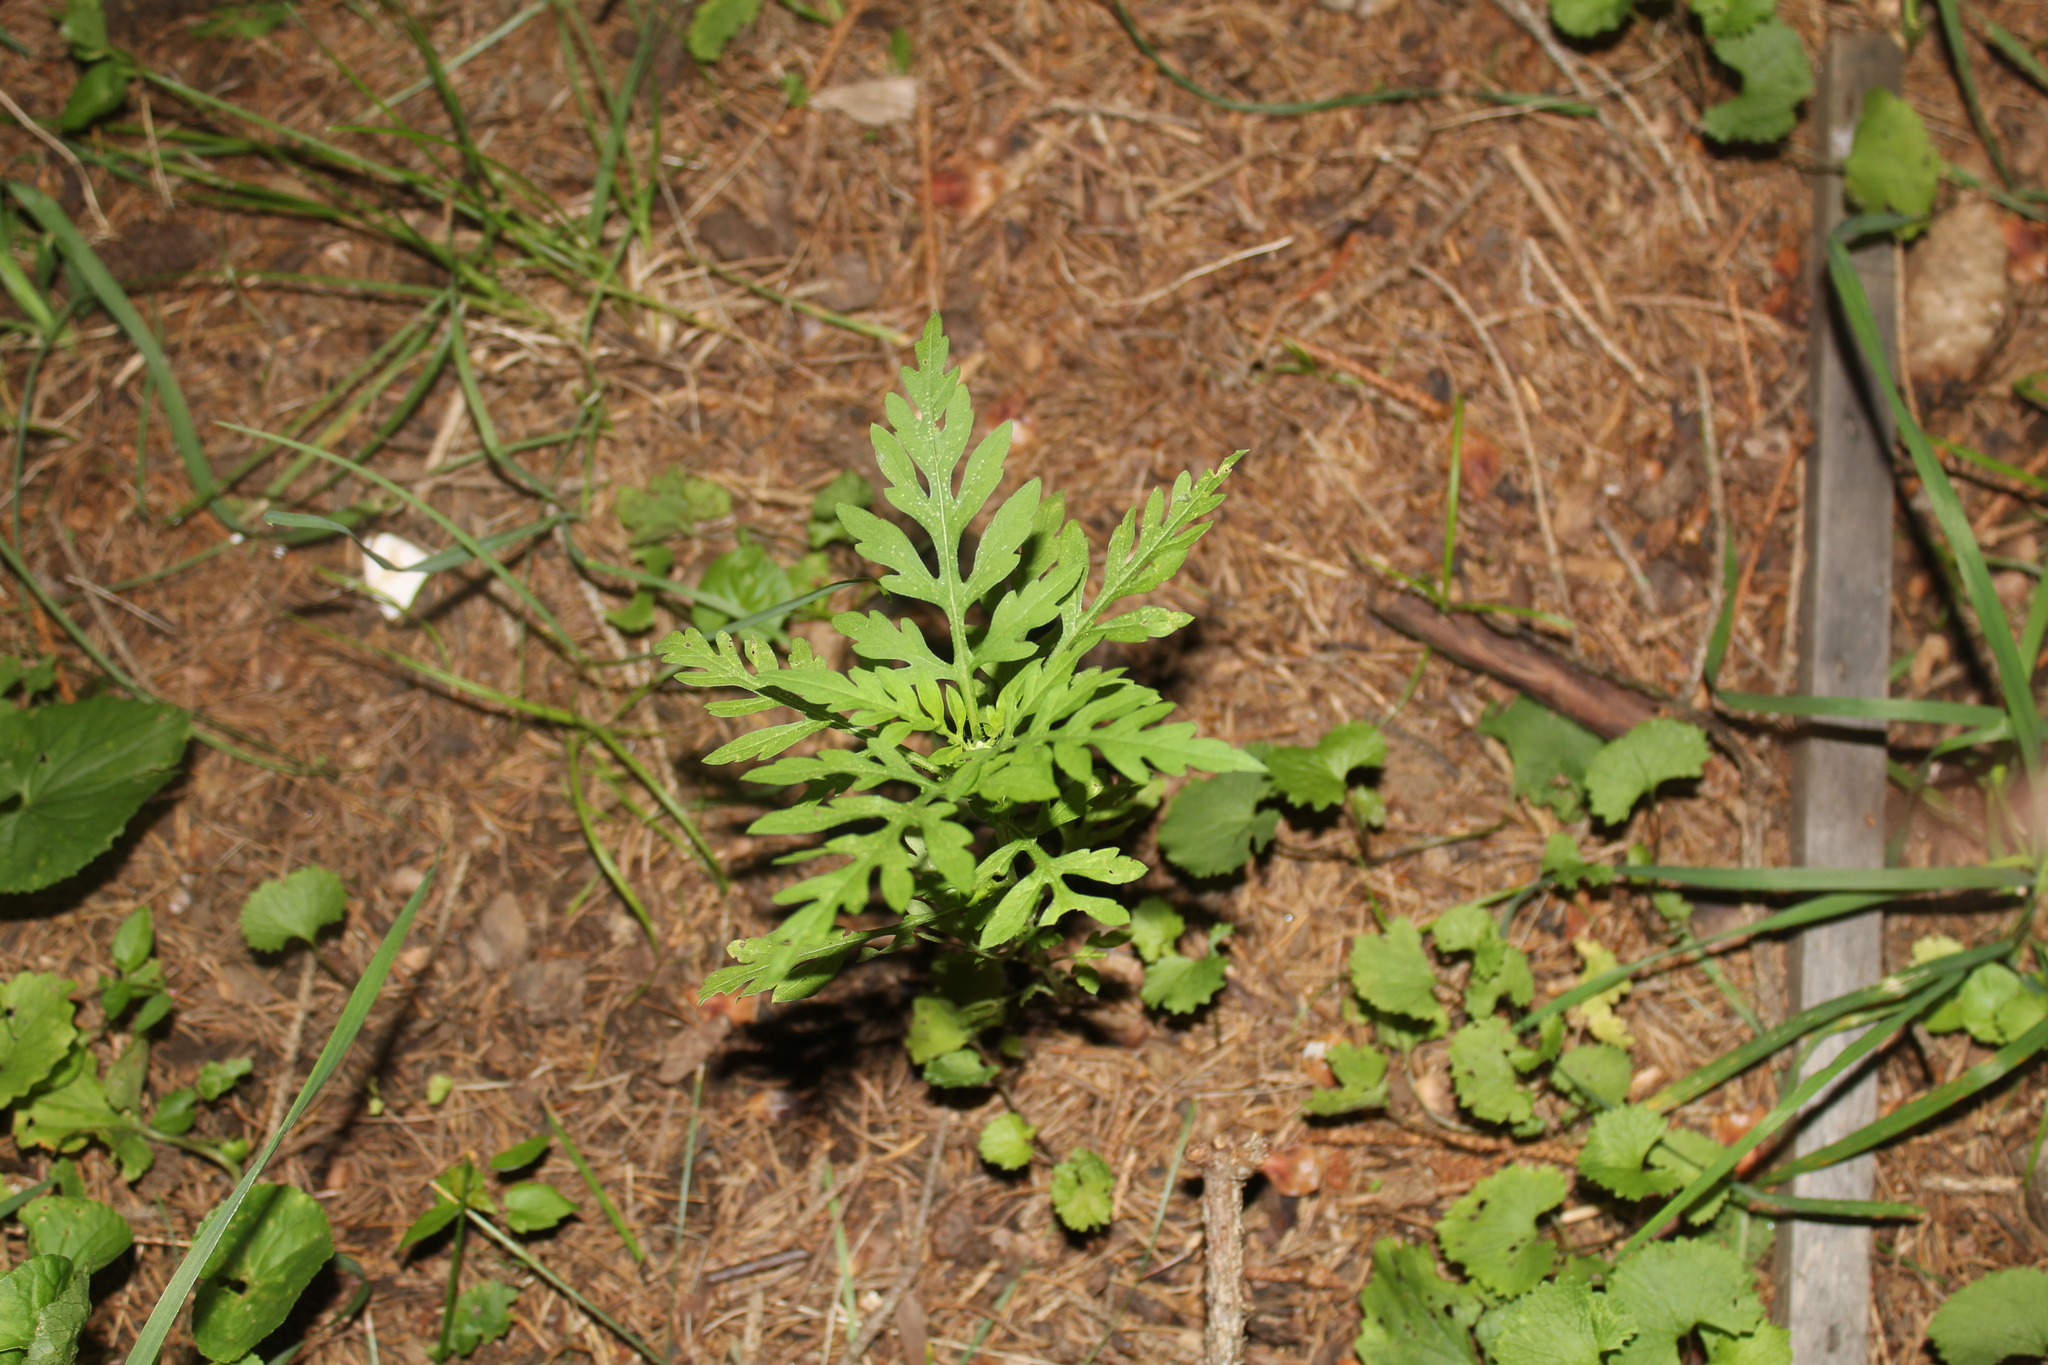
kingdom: Plantae
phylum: Tracheophyta
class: Magnoliopsida
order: Asterales
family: Asteraceae
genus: Ambrosia
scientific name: Ambrosia artemisiifolia
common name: Annual ragweed
